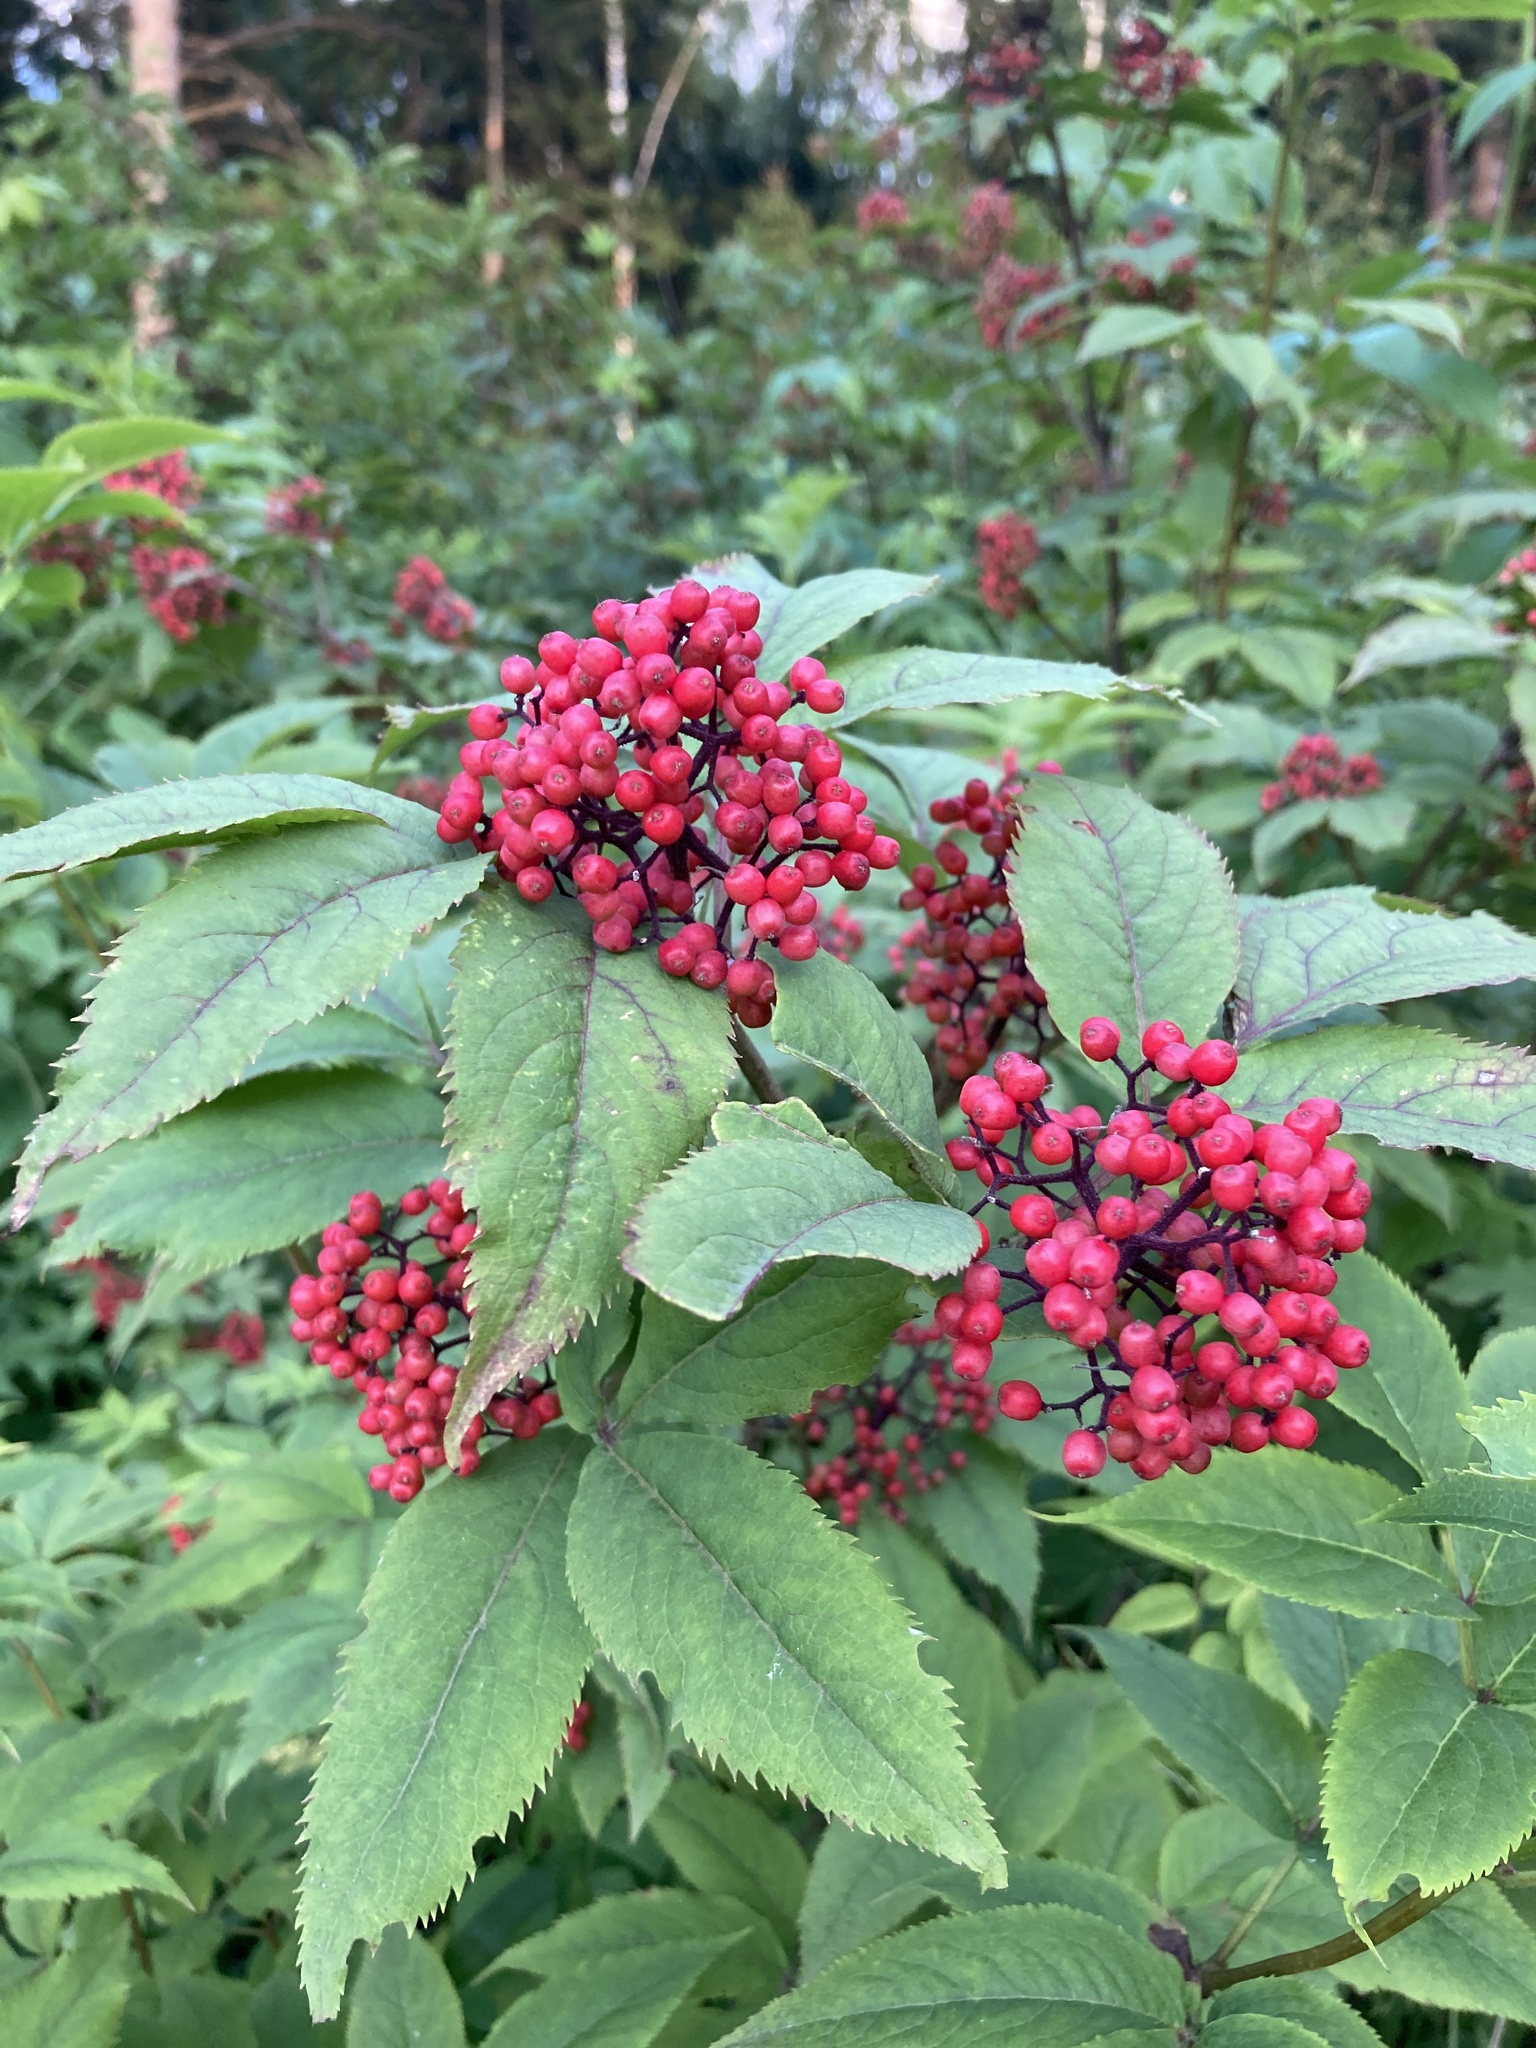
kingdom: Plantae
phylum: Tracheophyta
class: Magnoliopsida
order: Dipsacales
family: Viburnaceae
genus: Sambucus
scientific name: Sambucus racemosa
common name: Red-berried elder
